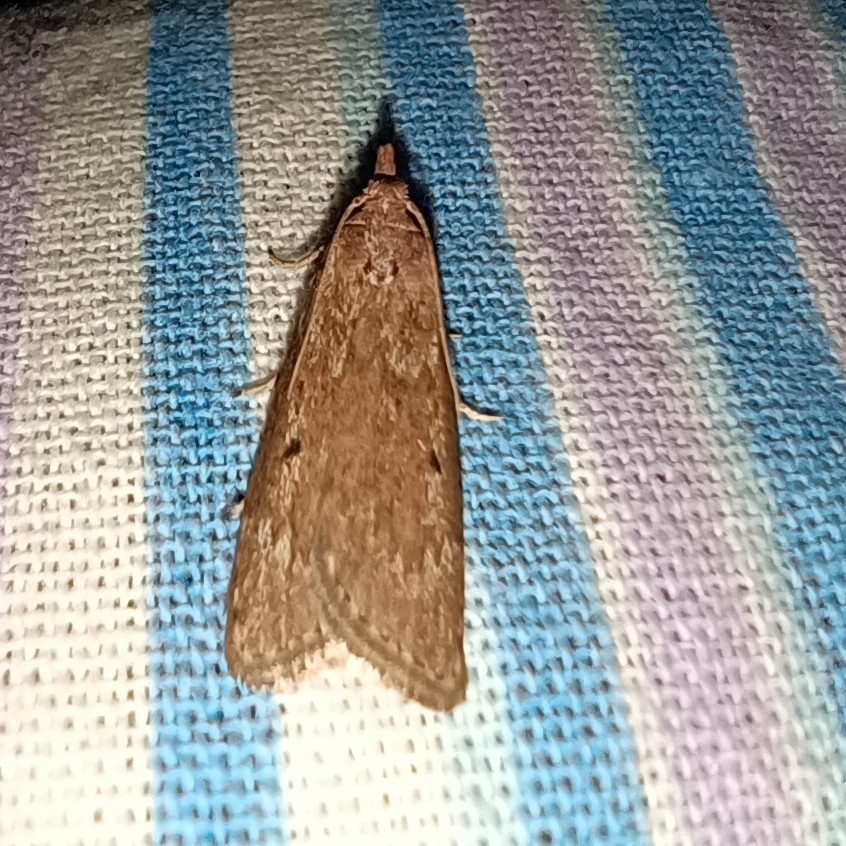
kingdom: Animalia
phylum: Arthropoda
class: Insecta
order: Lepidoptera
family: Pyralidae
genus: Aphomia
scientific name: Aphomia sociella
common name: Bee moth
